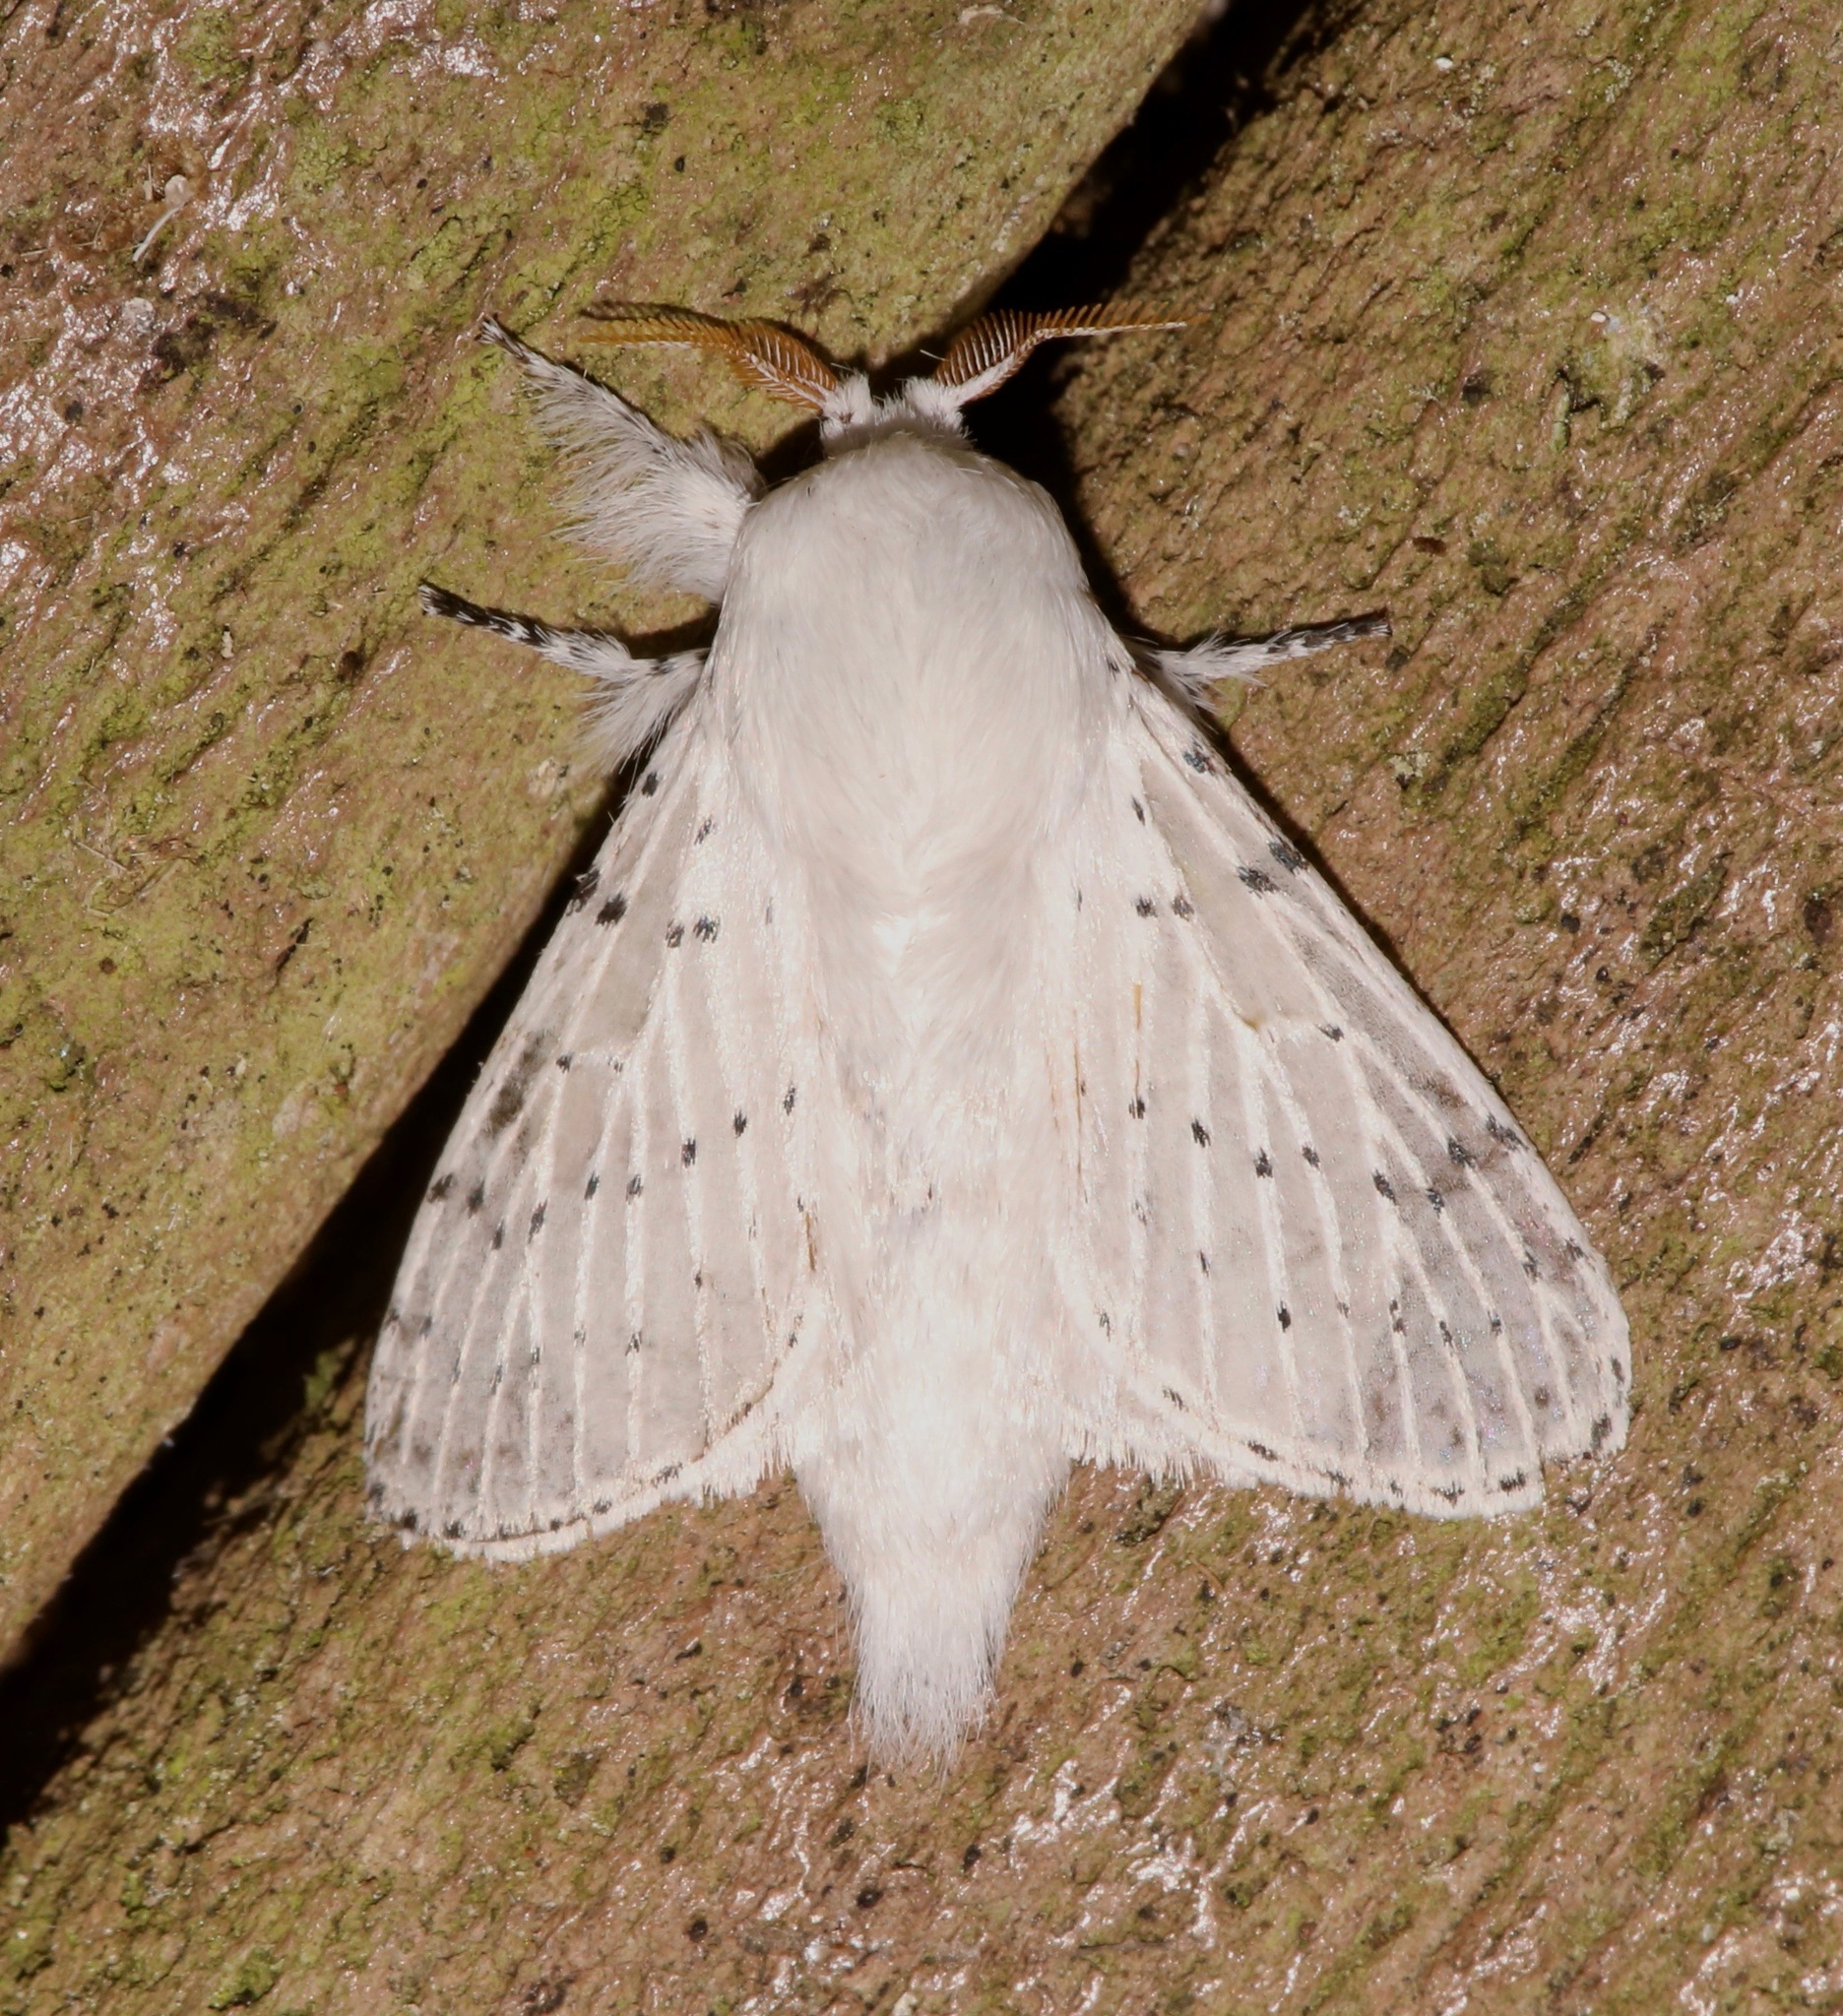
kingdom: Animalia
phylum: Arthropoda
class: Insecta
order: Lepidoptera
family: Lasiocampidae
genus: Artace
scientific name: Artace cribrarius
